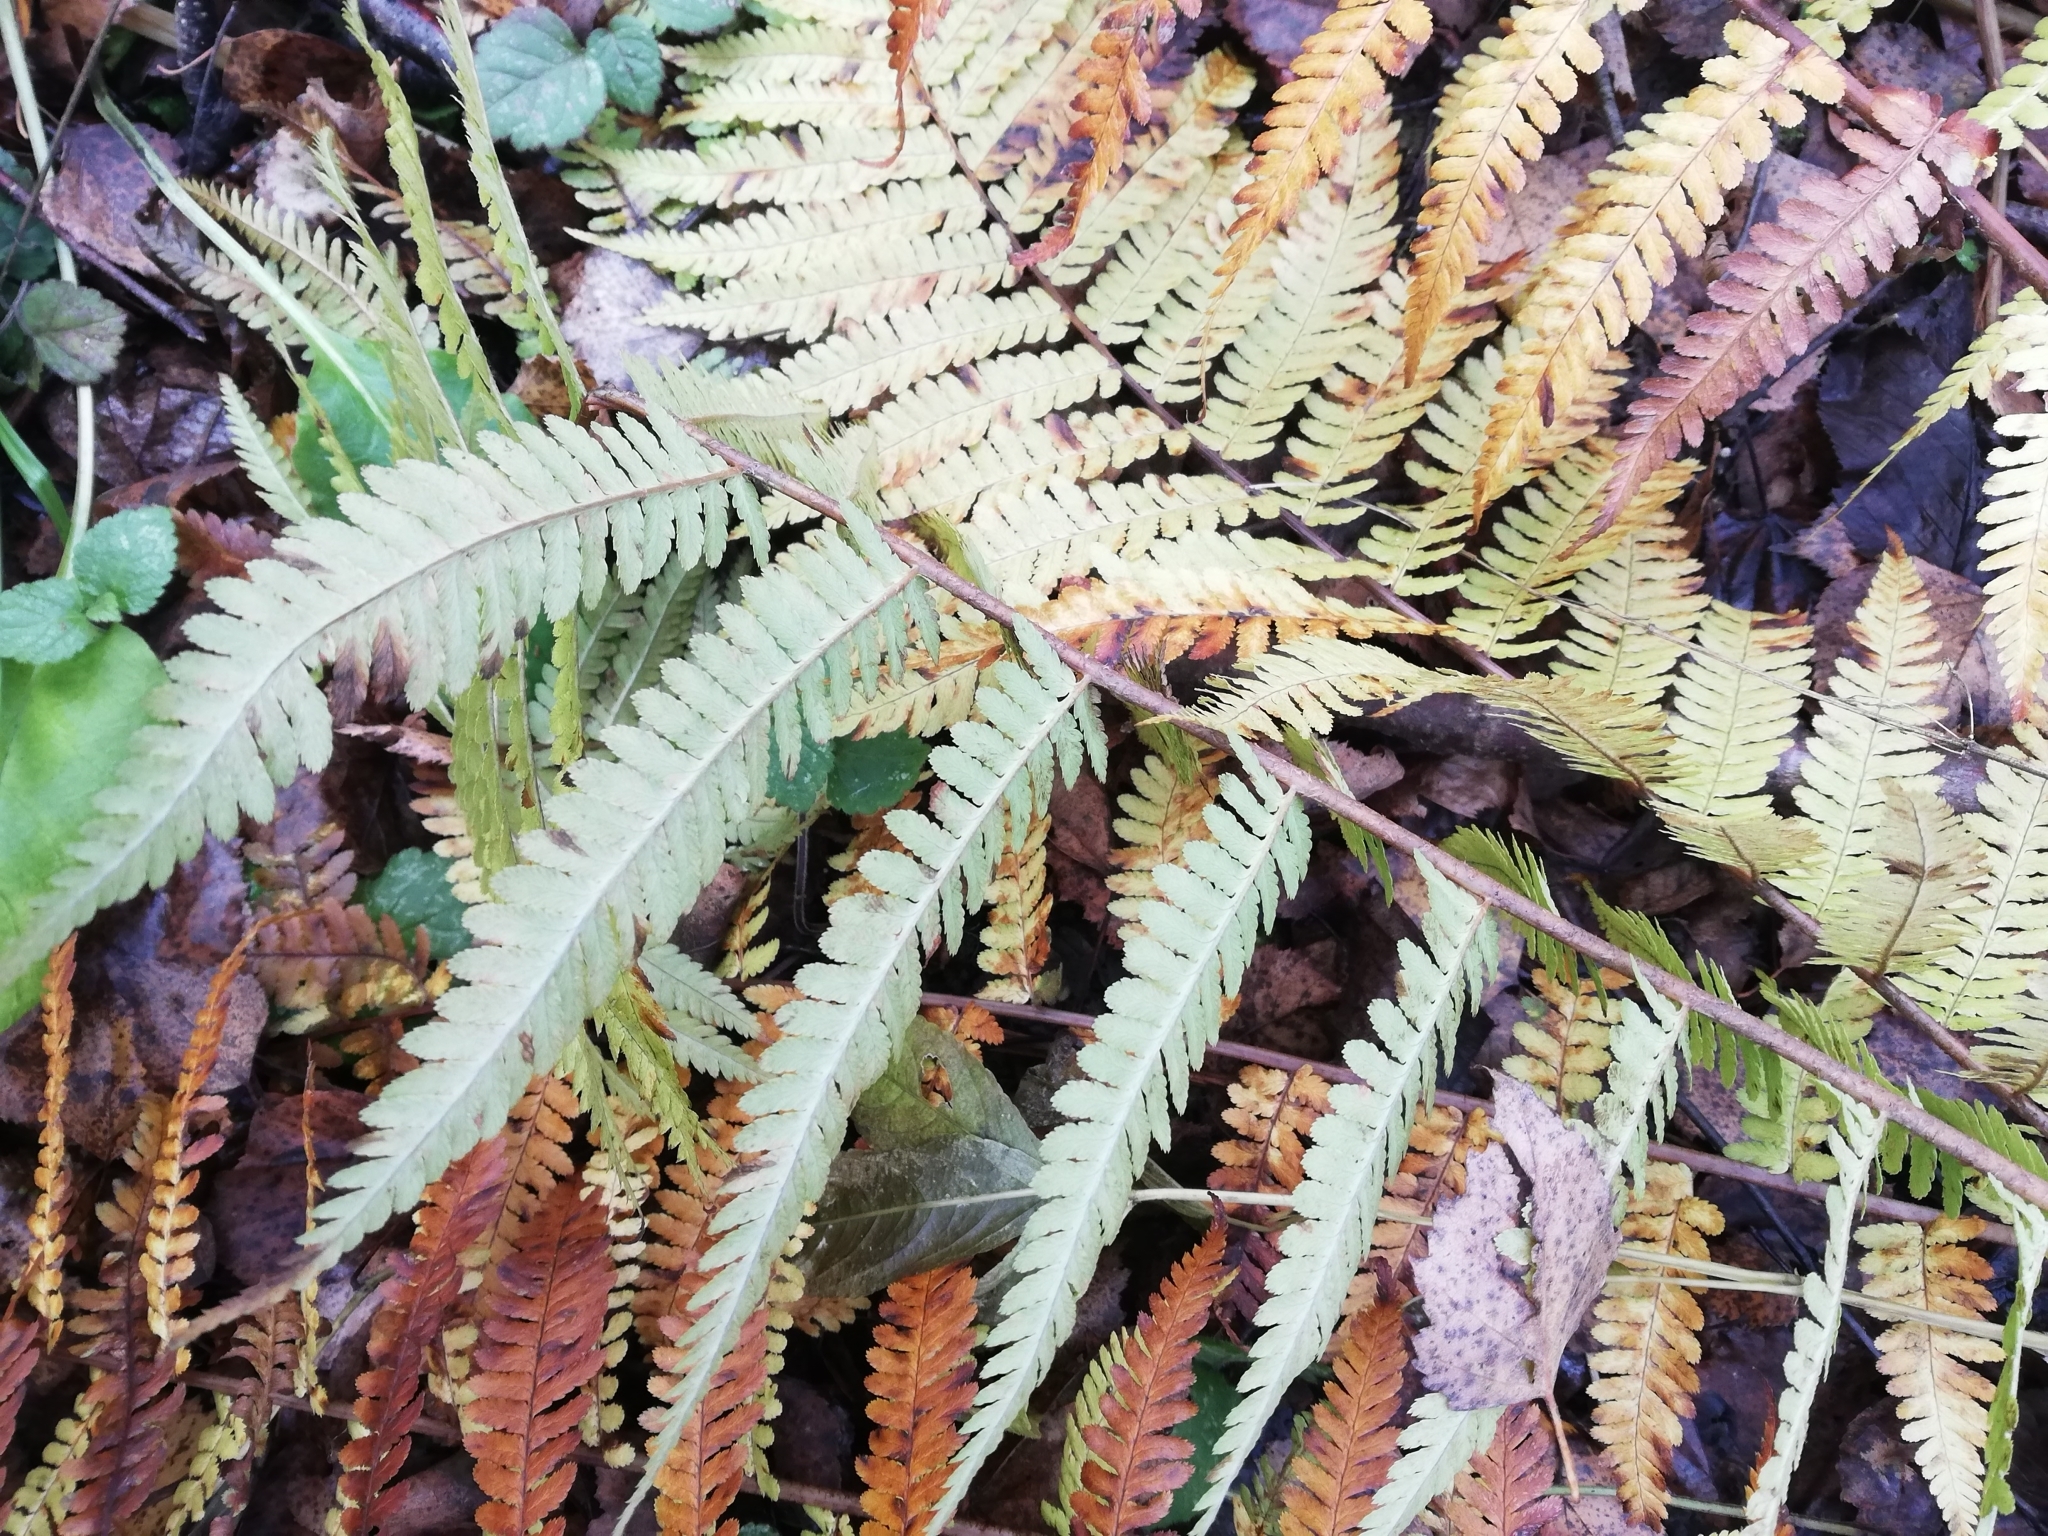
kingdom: Plantae
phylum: Tracheophyta
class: Polypodiopsida
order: Polypodiales
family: Dryopteridaceae
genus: Dryopteris
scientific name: Dryopteris filix-mas
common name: Male fern
